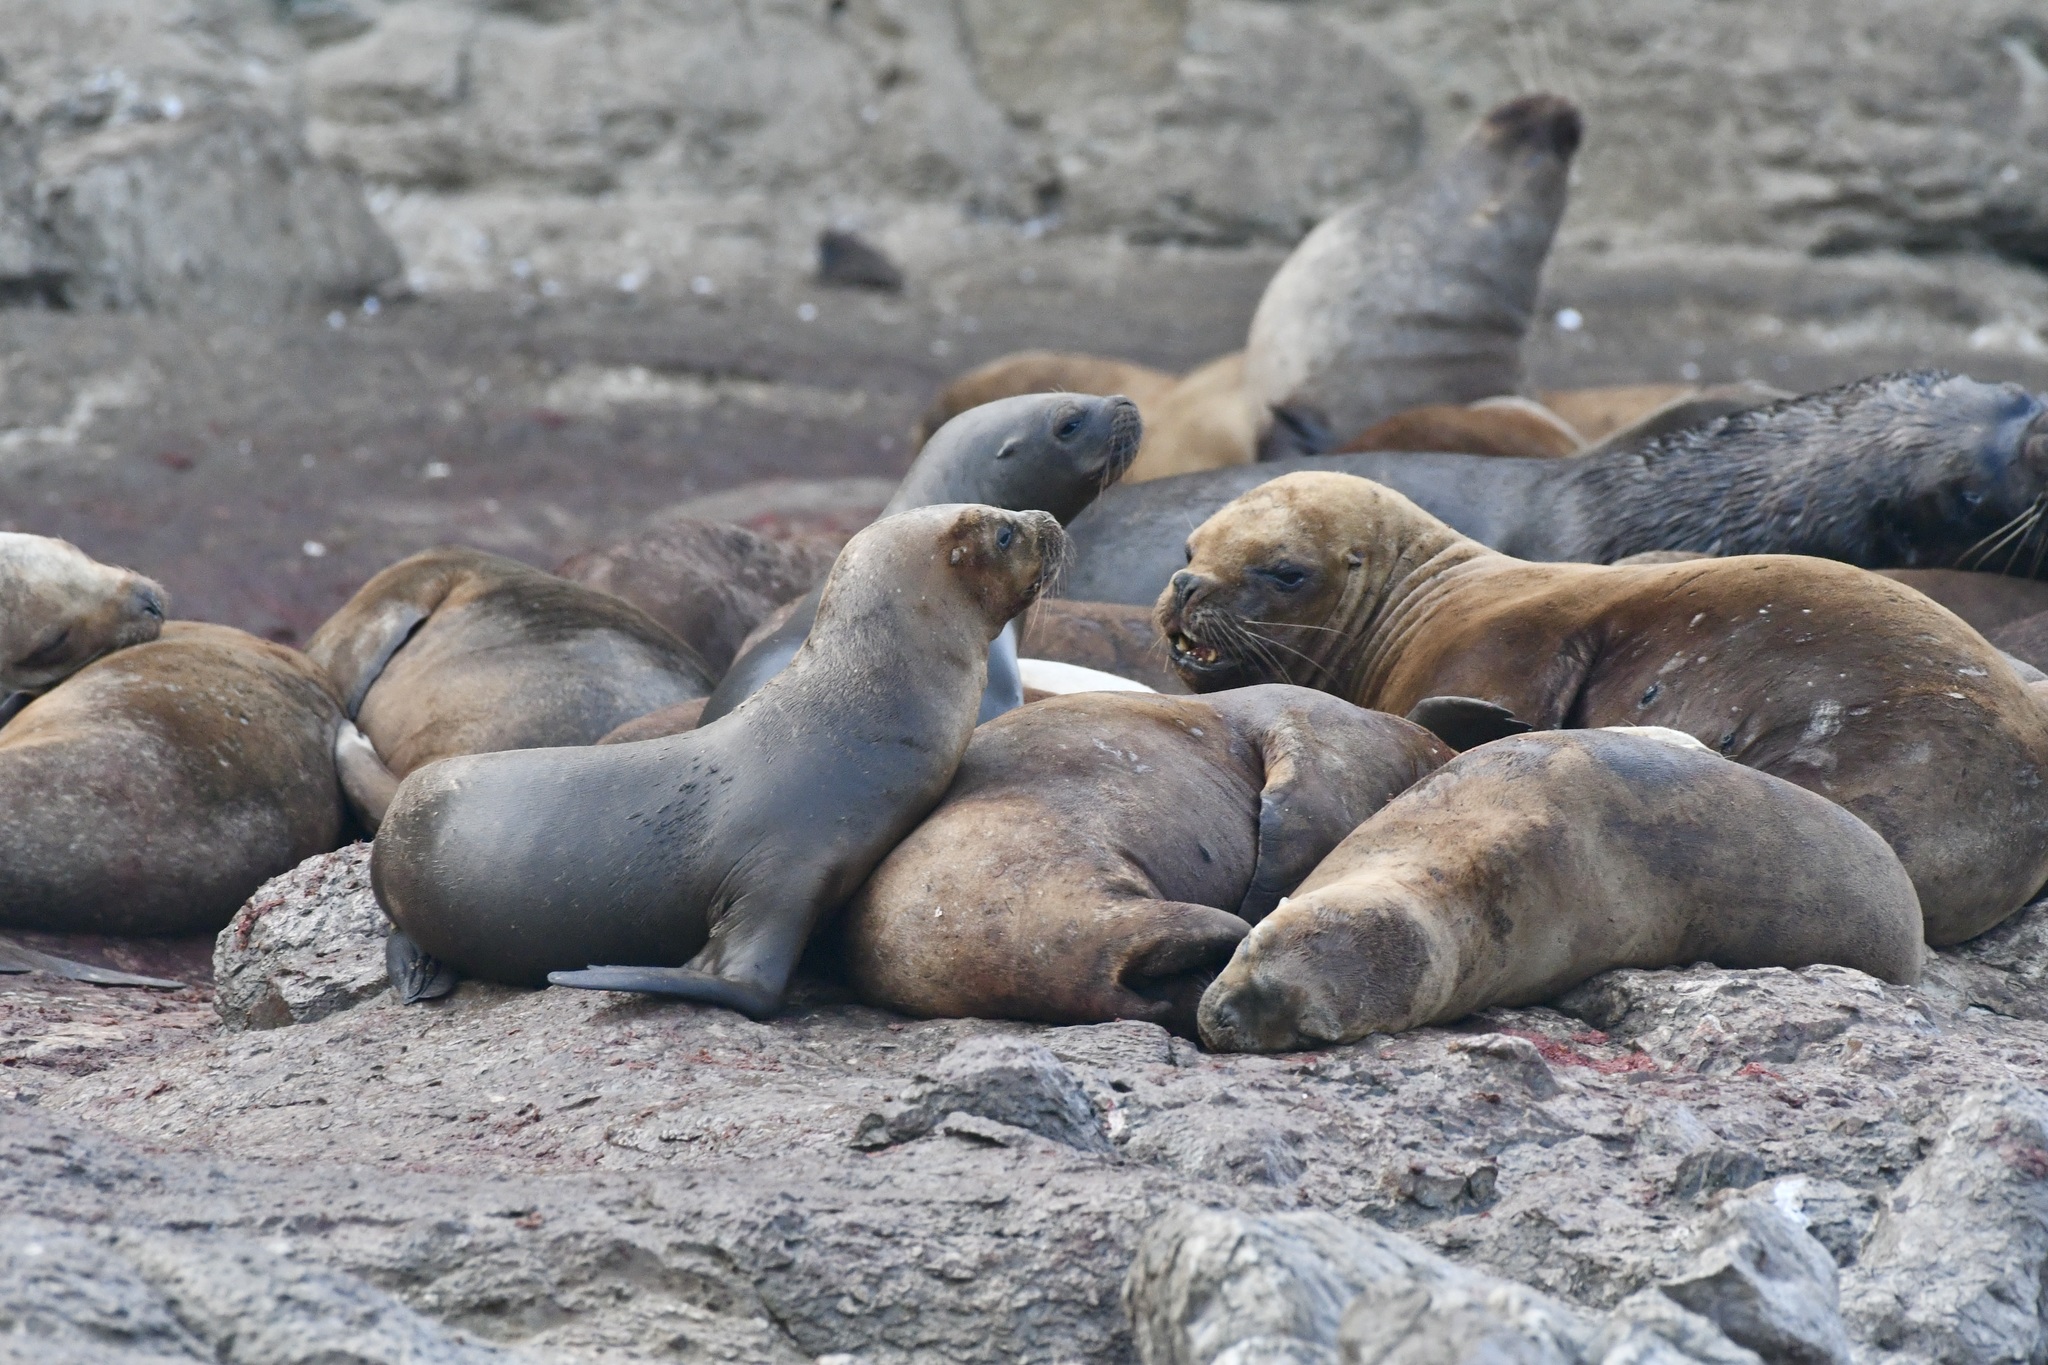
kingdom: Animalia
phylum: Chordata
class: Mammalia
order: Carnivora
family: Otariidae
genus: Otaria
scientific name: Otaria byronia
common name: South american sea lion
